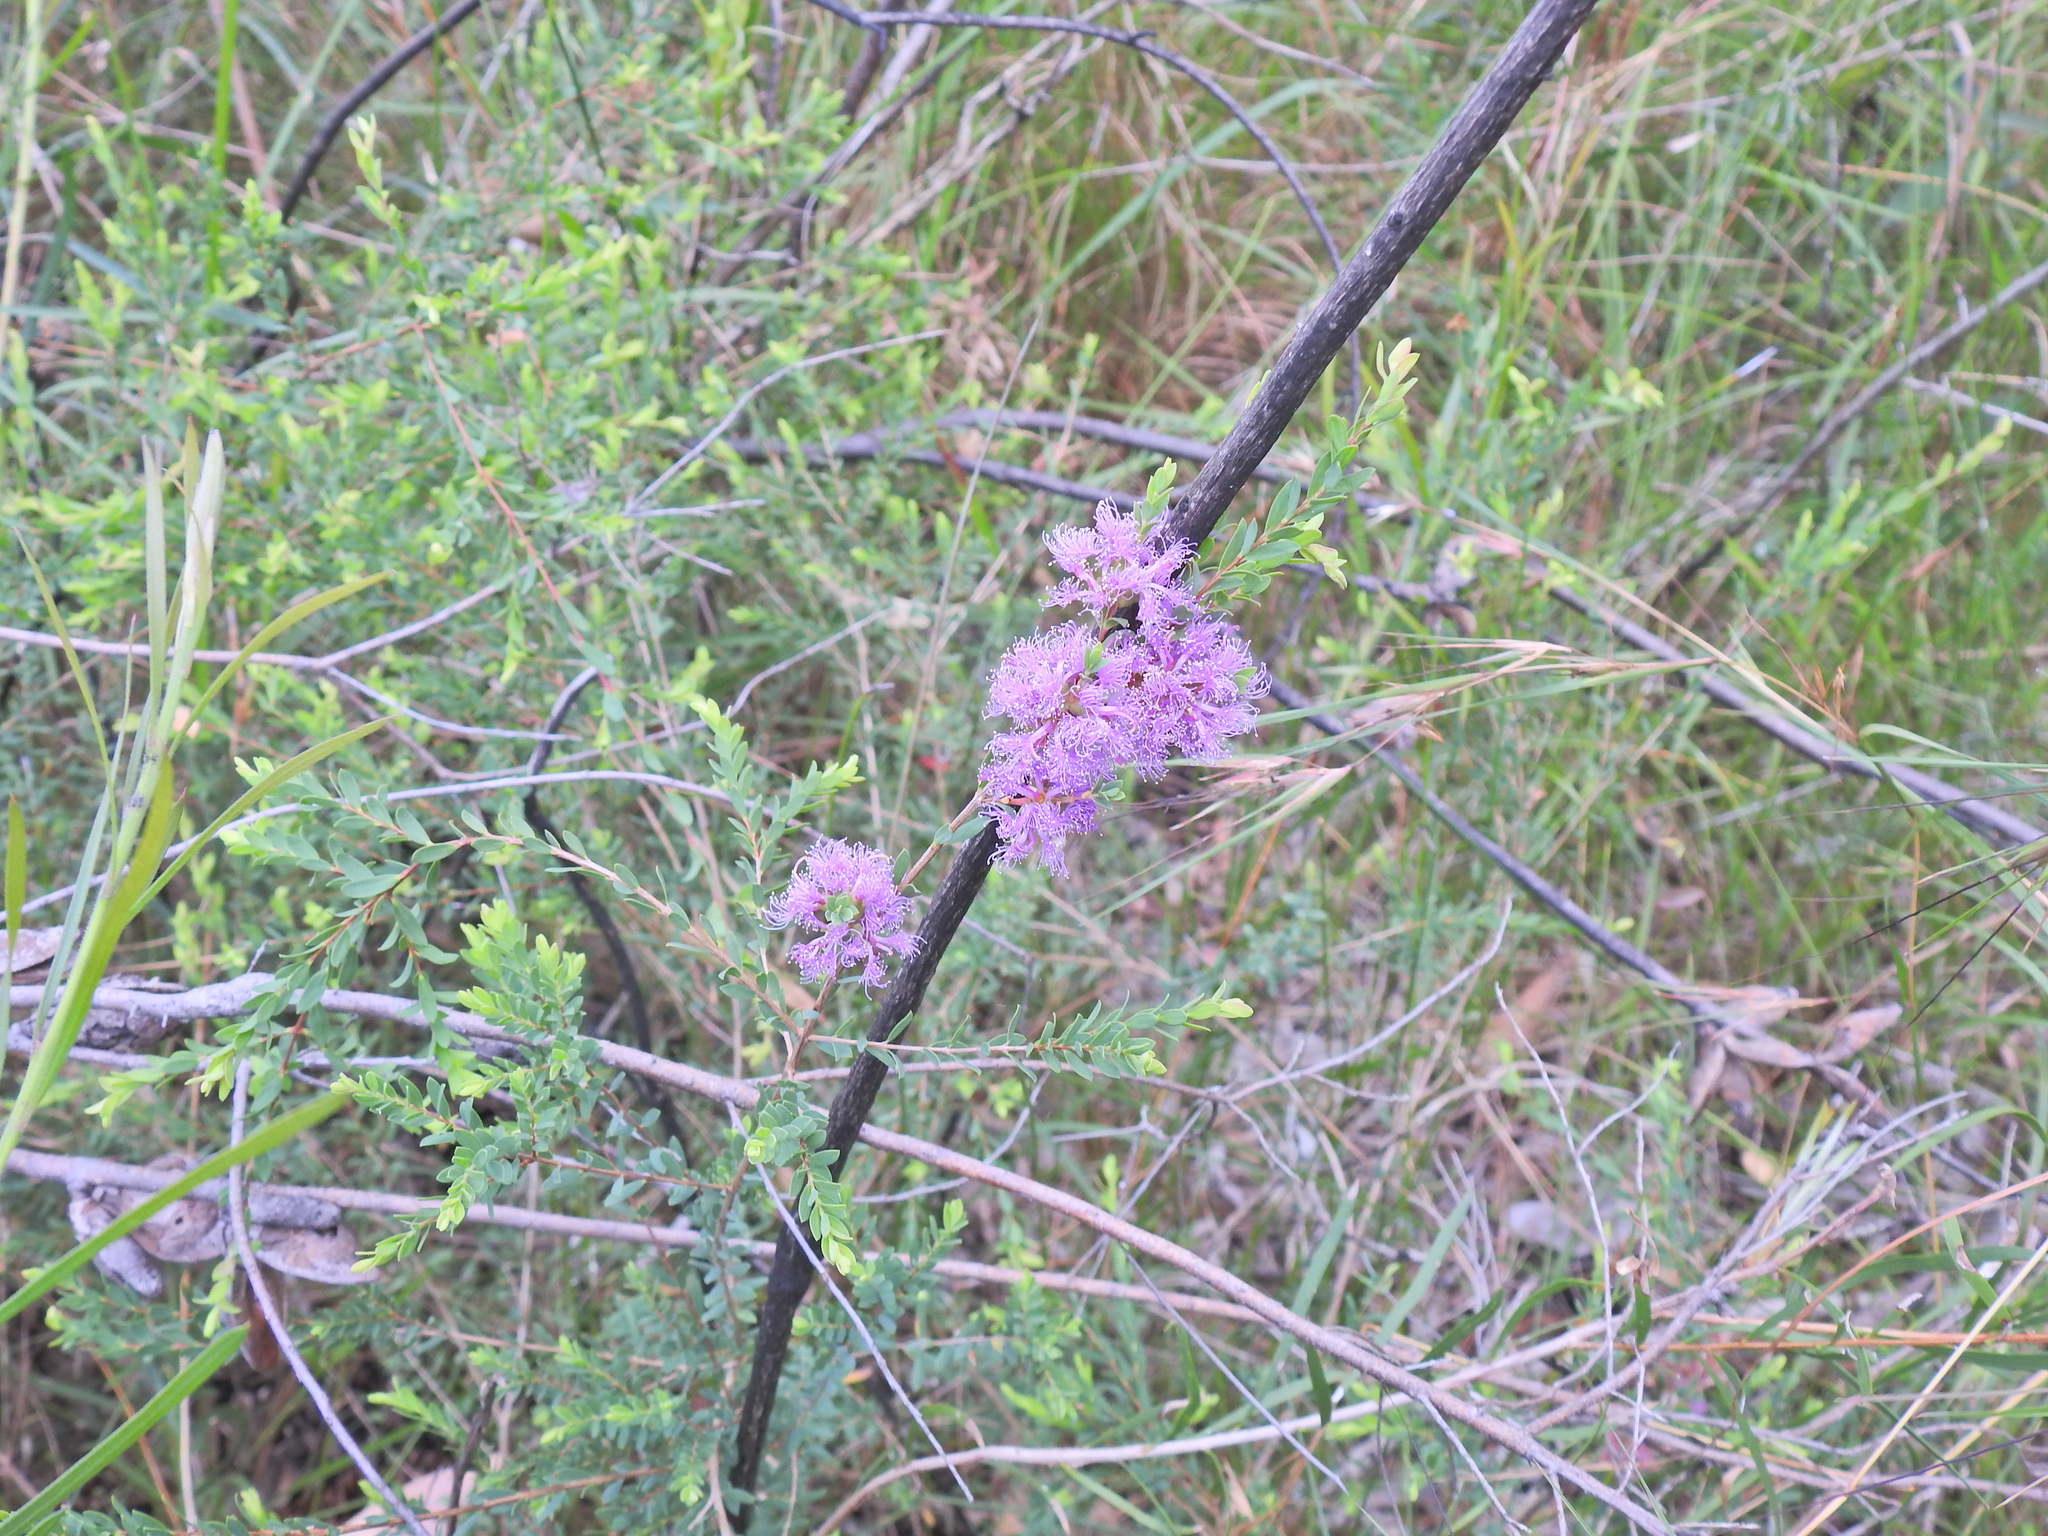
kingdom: Plantae
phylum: Tracheophyta
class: Magnoliopsida
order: Myrtales
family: Myrtaceae
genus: Melaleuca
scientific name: Melaleuca thymifolia
